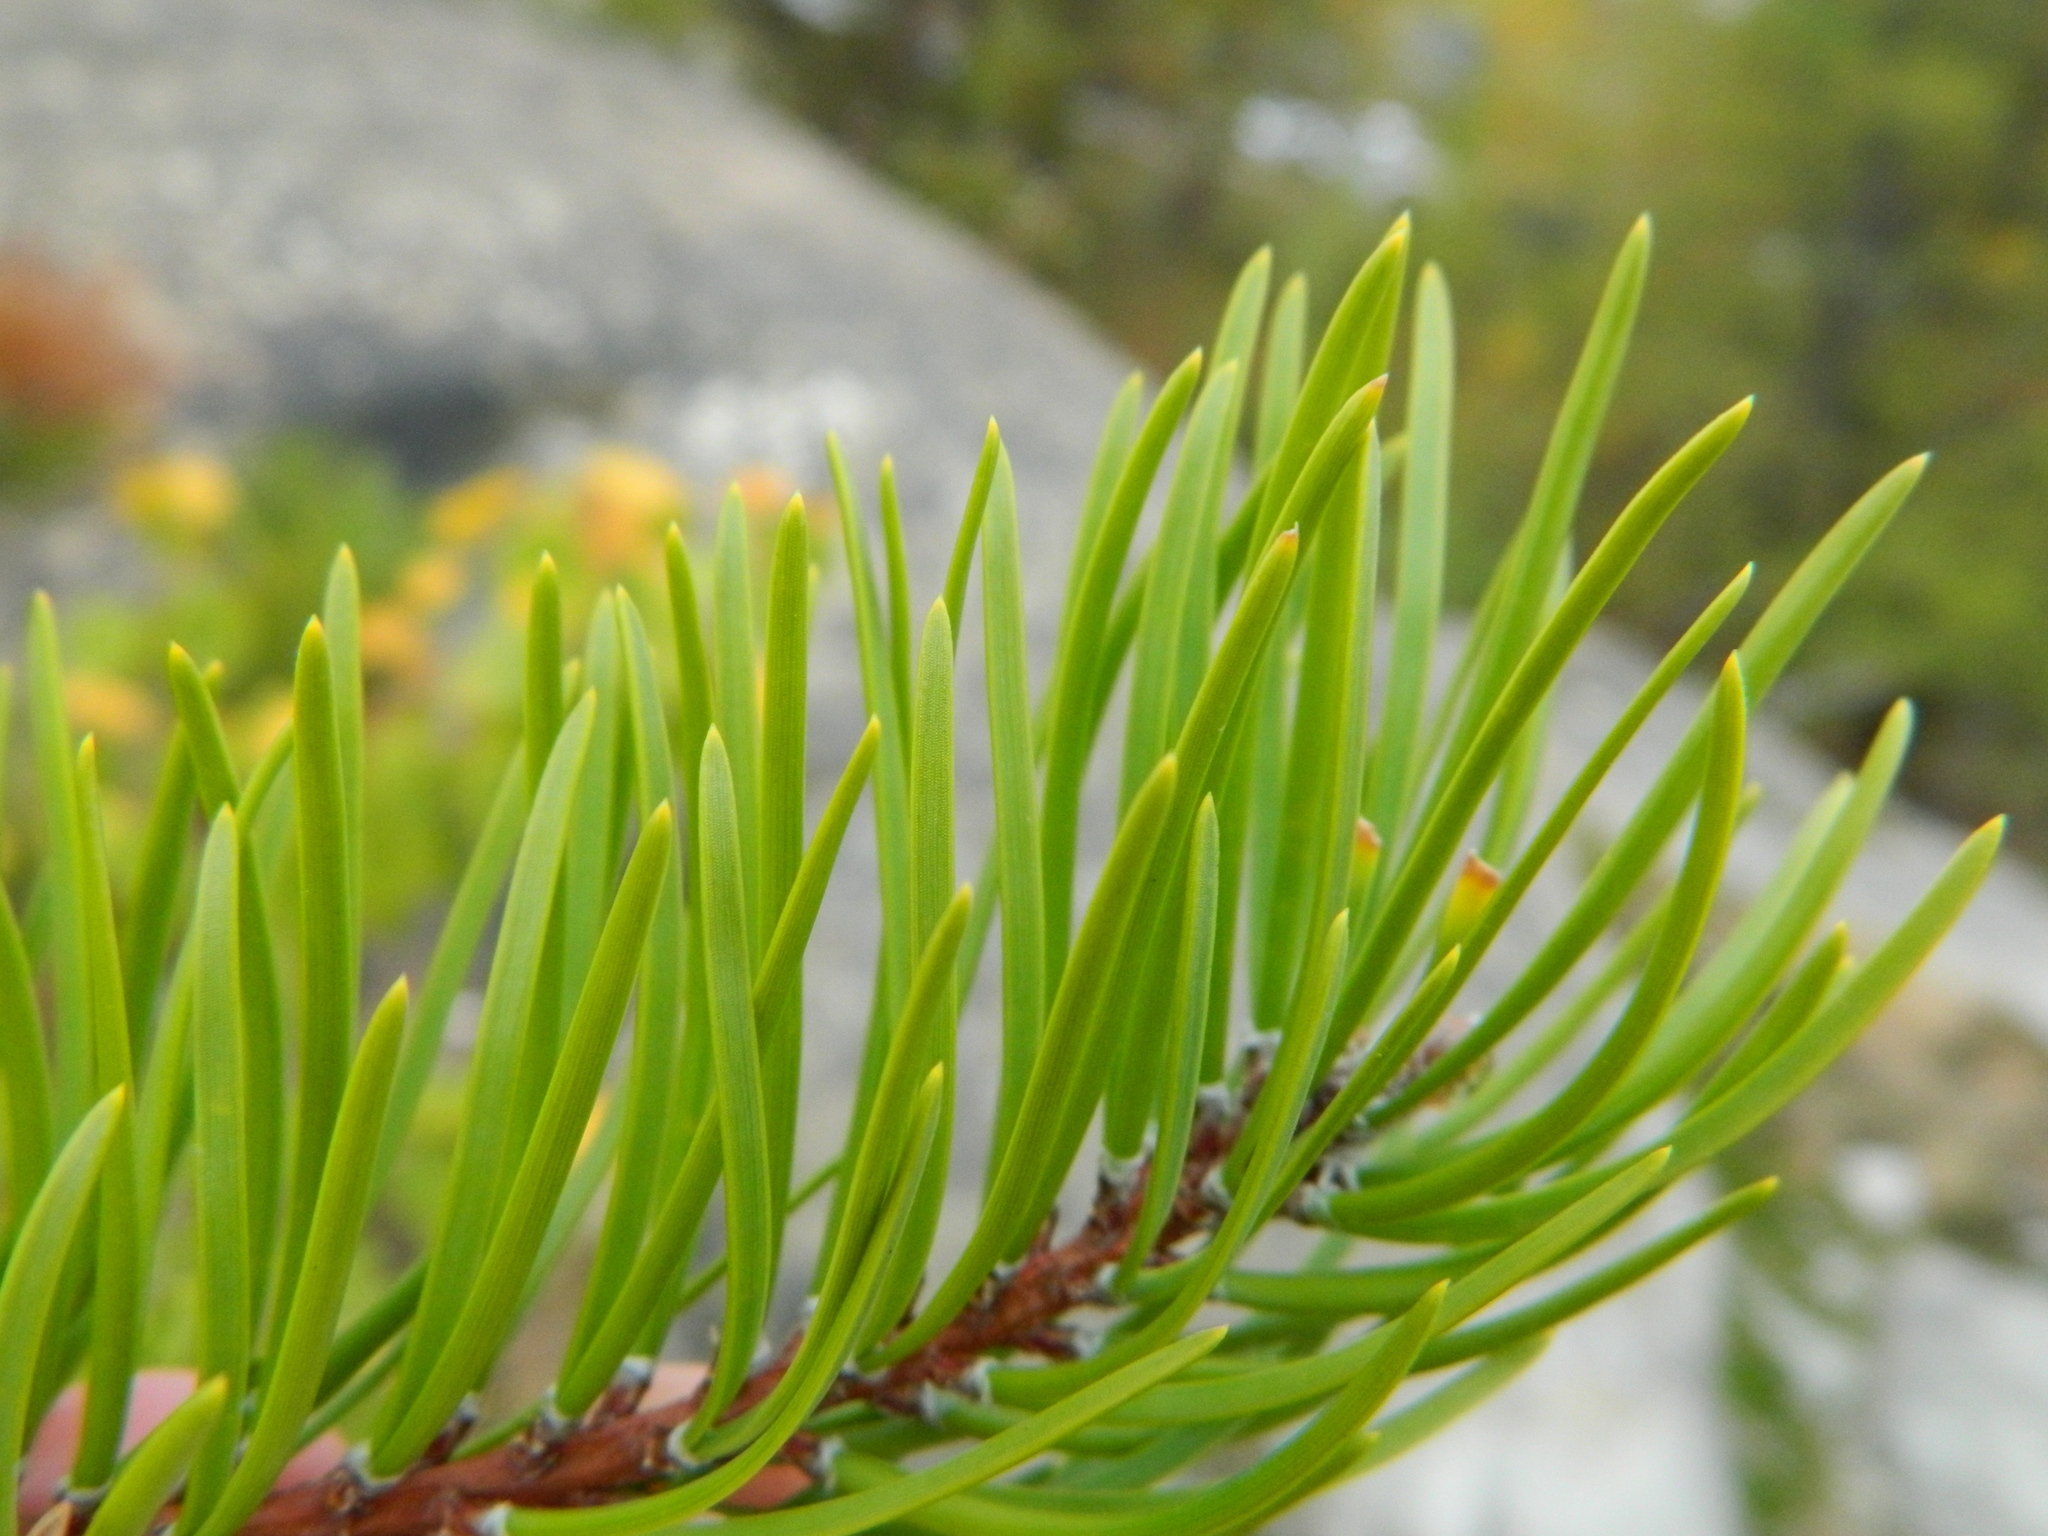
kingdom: Plantae
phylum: Tracheophyta
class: Pinopsida
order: Pinales
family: Pinaceae
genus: Pinus
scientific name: Pinus banksiana
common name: Jack pine
